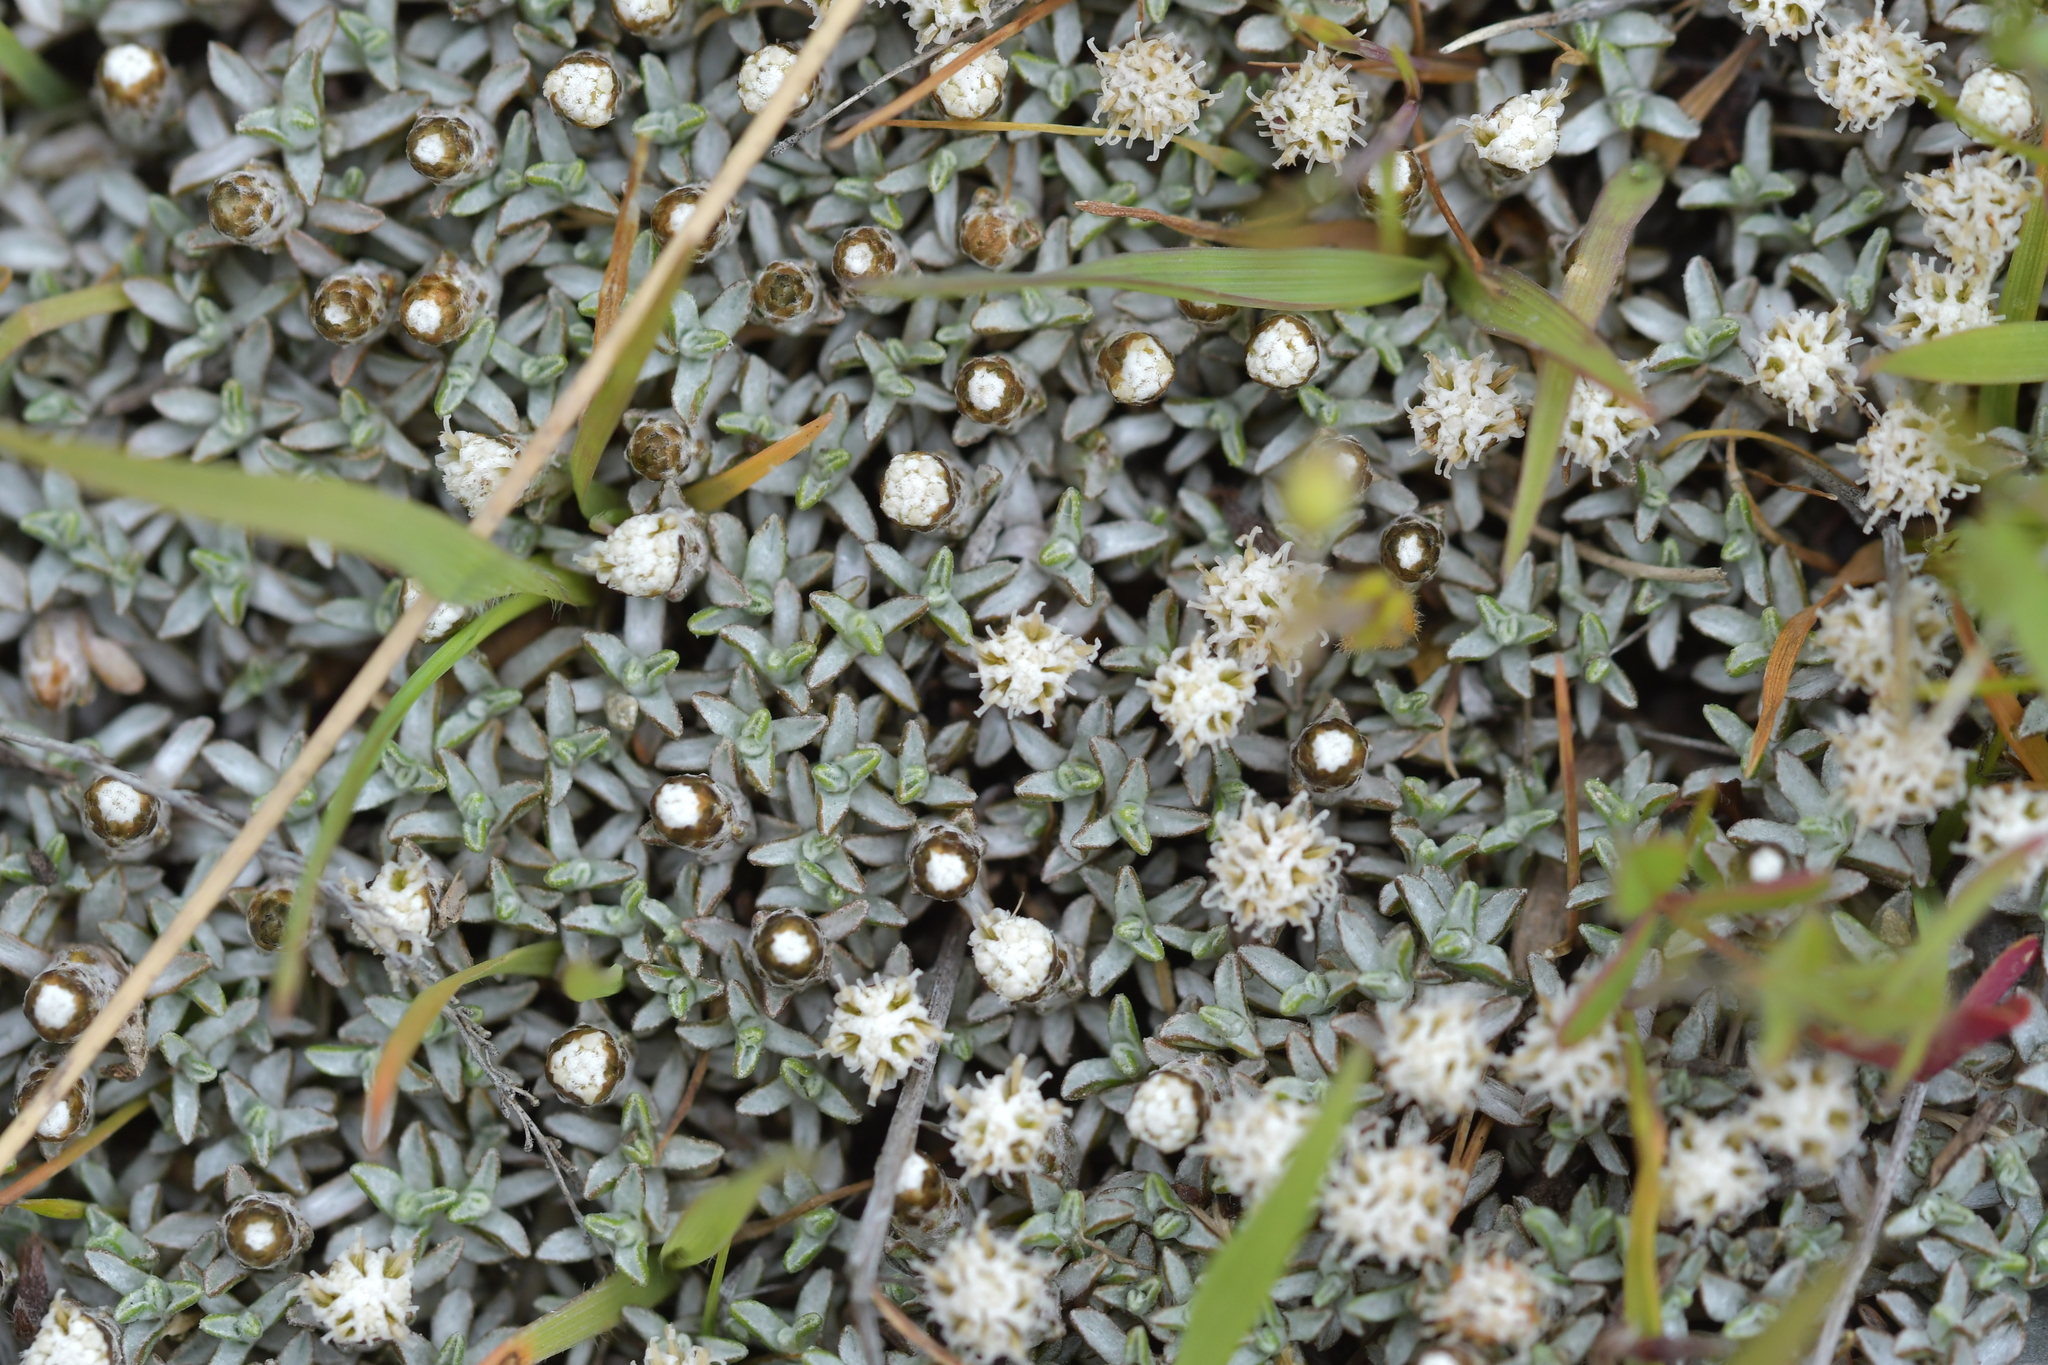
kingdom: Plantae
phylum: Tracheophyta
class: Magnoliopsida
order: Asterales
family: Asteraceae
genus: Raoulia
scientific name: Raoulia beauverdii
